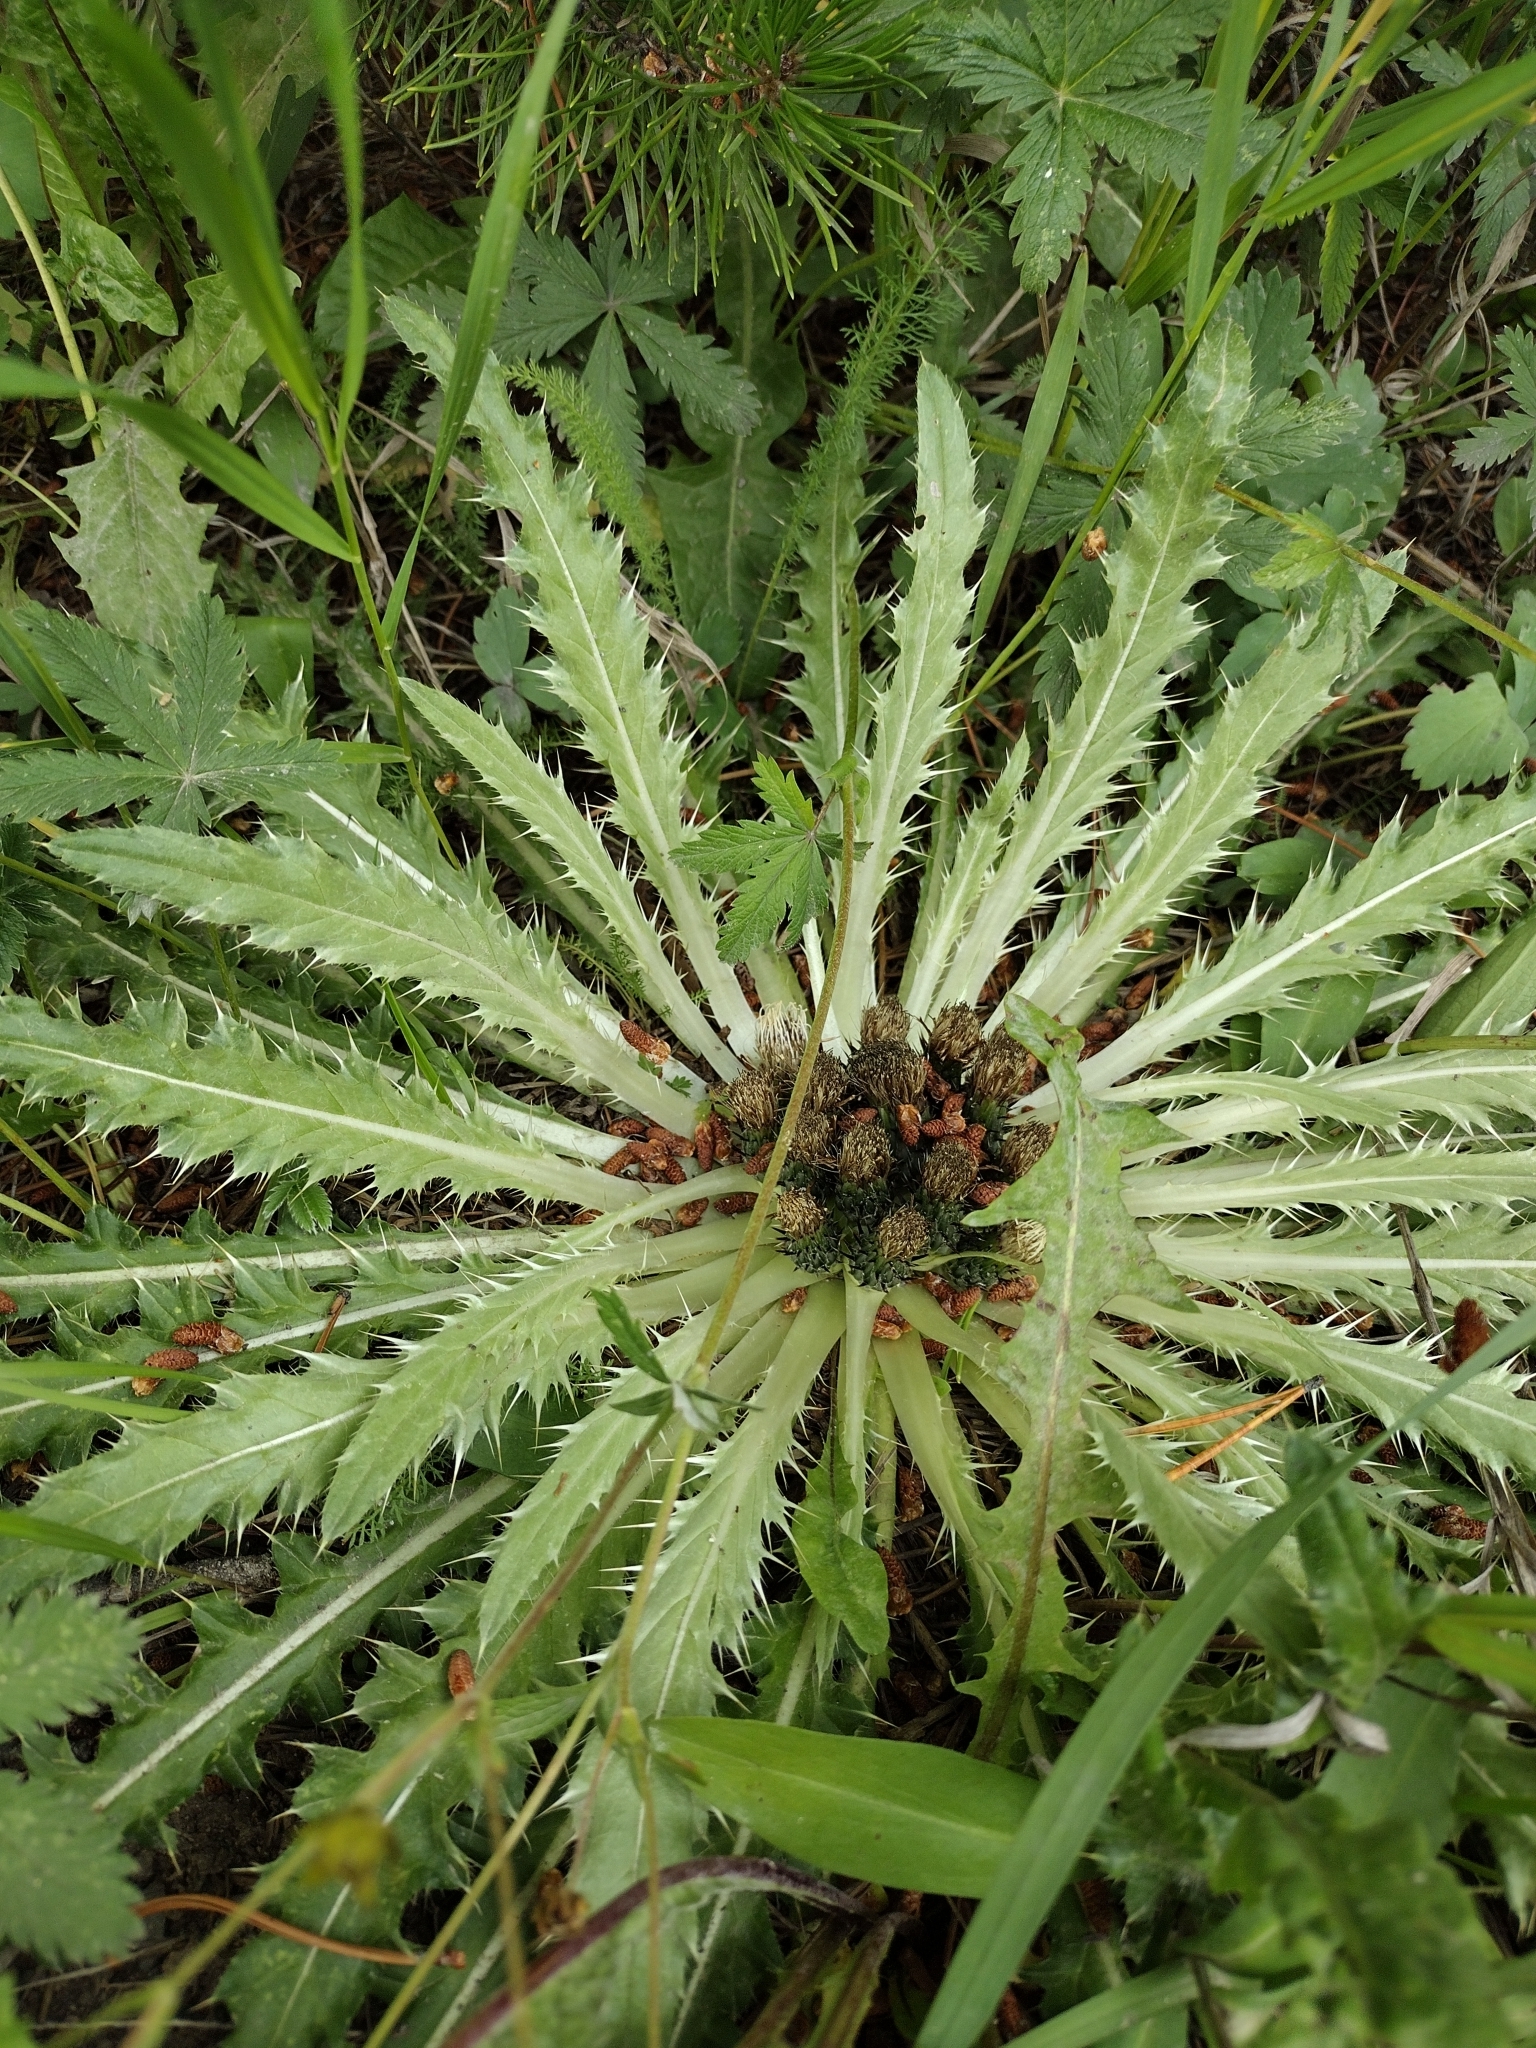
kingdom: Plantae
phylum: Tracheophyta
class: Magnoliopsida
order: Asterales
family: Asteraceae
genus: Cirsium
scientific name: Cirsium scariosum
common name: Meadow thistle
